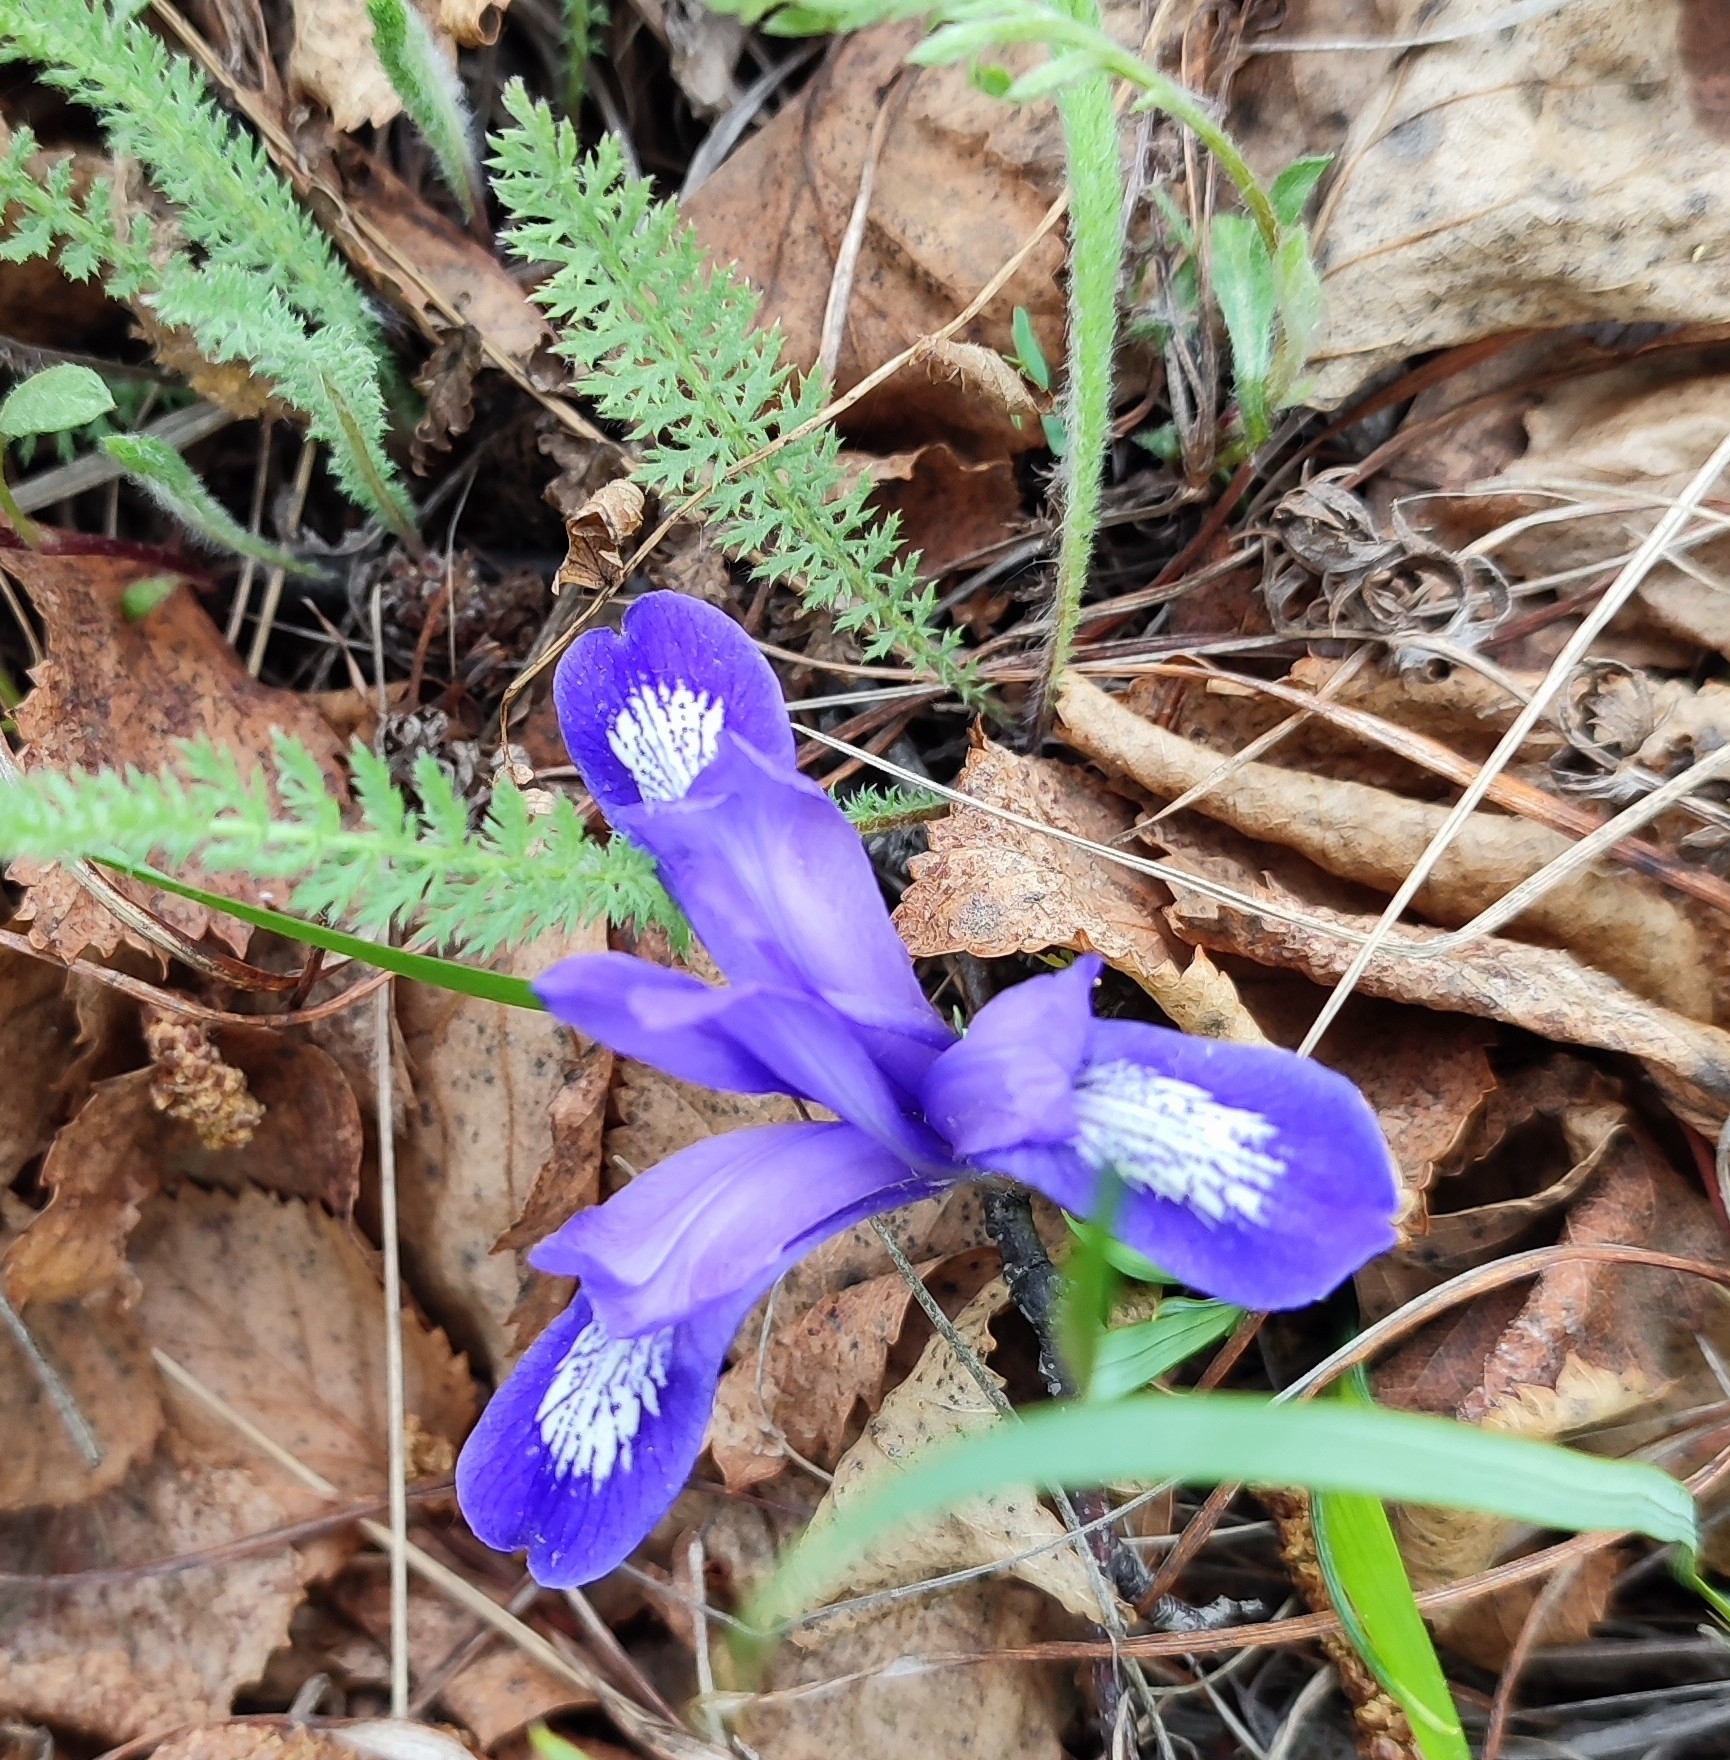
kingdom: Plantae
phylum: Tracheophyta
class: Liliopsida
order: Asparagales
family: Iridaceae
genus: Iris
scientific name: Iris ruthenica
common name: Purple-bract iris
